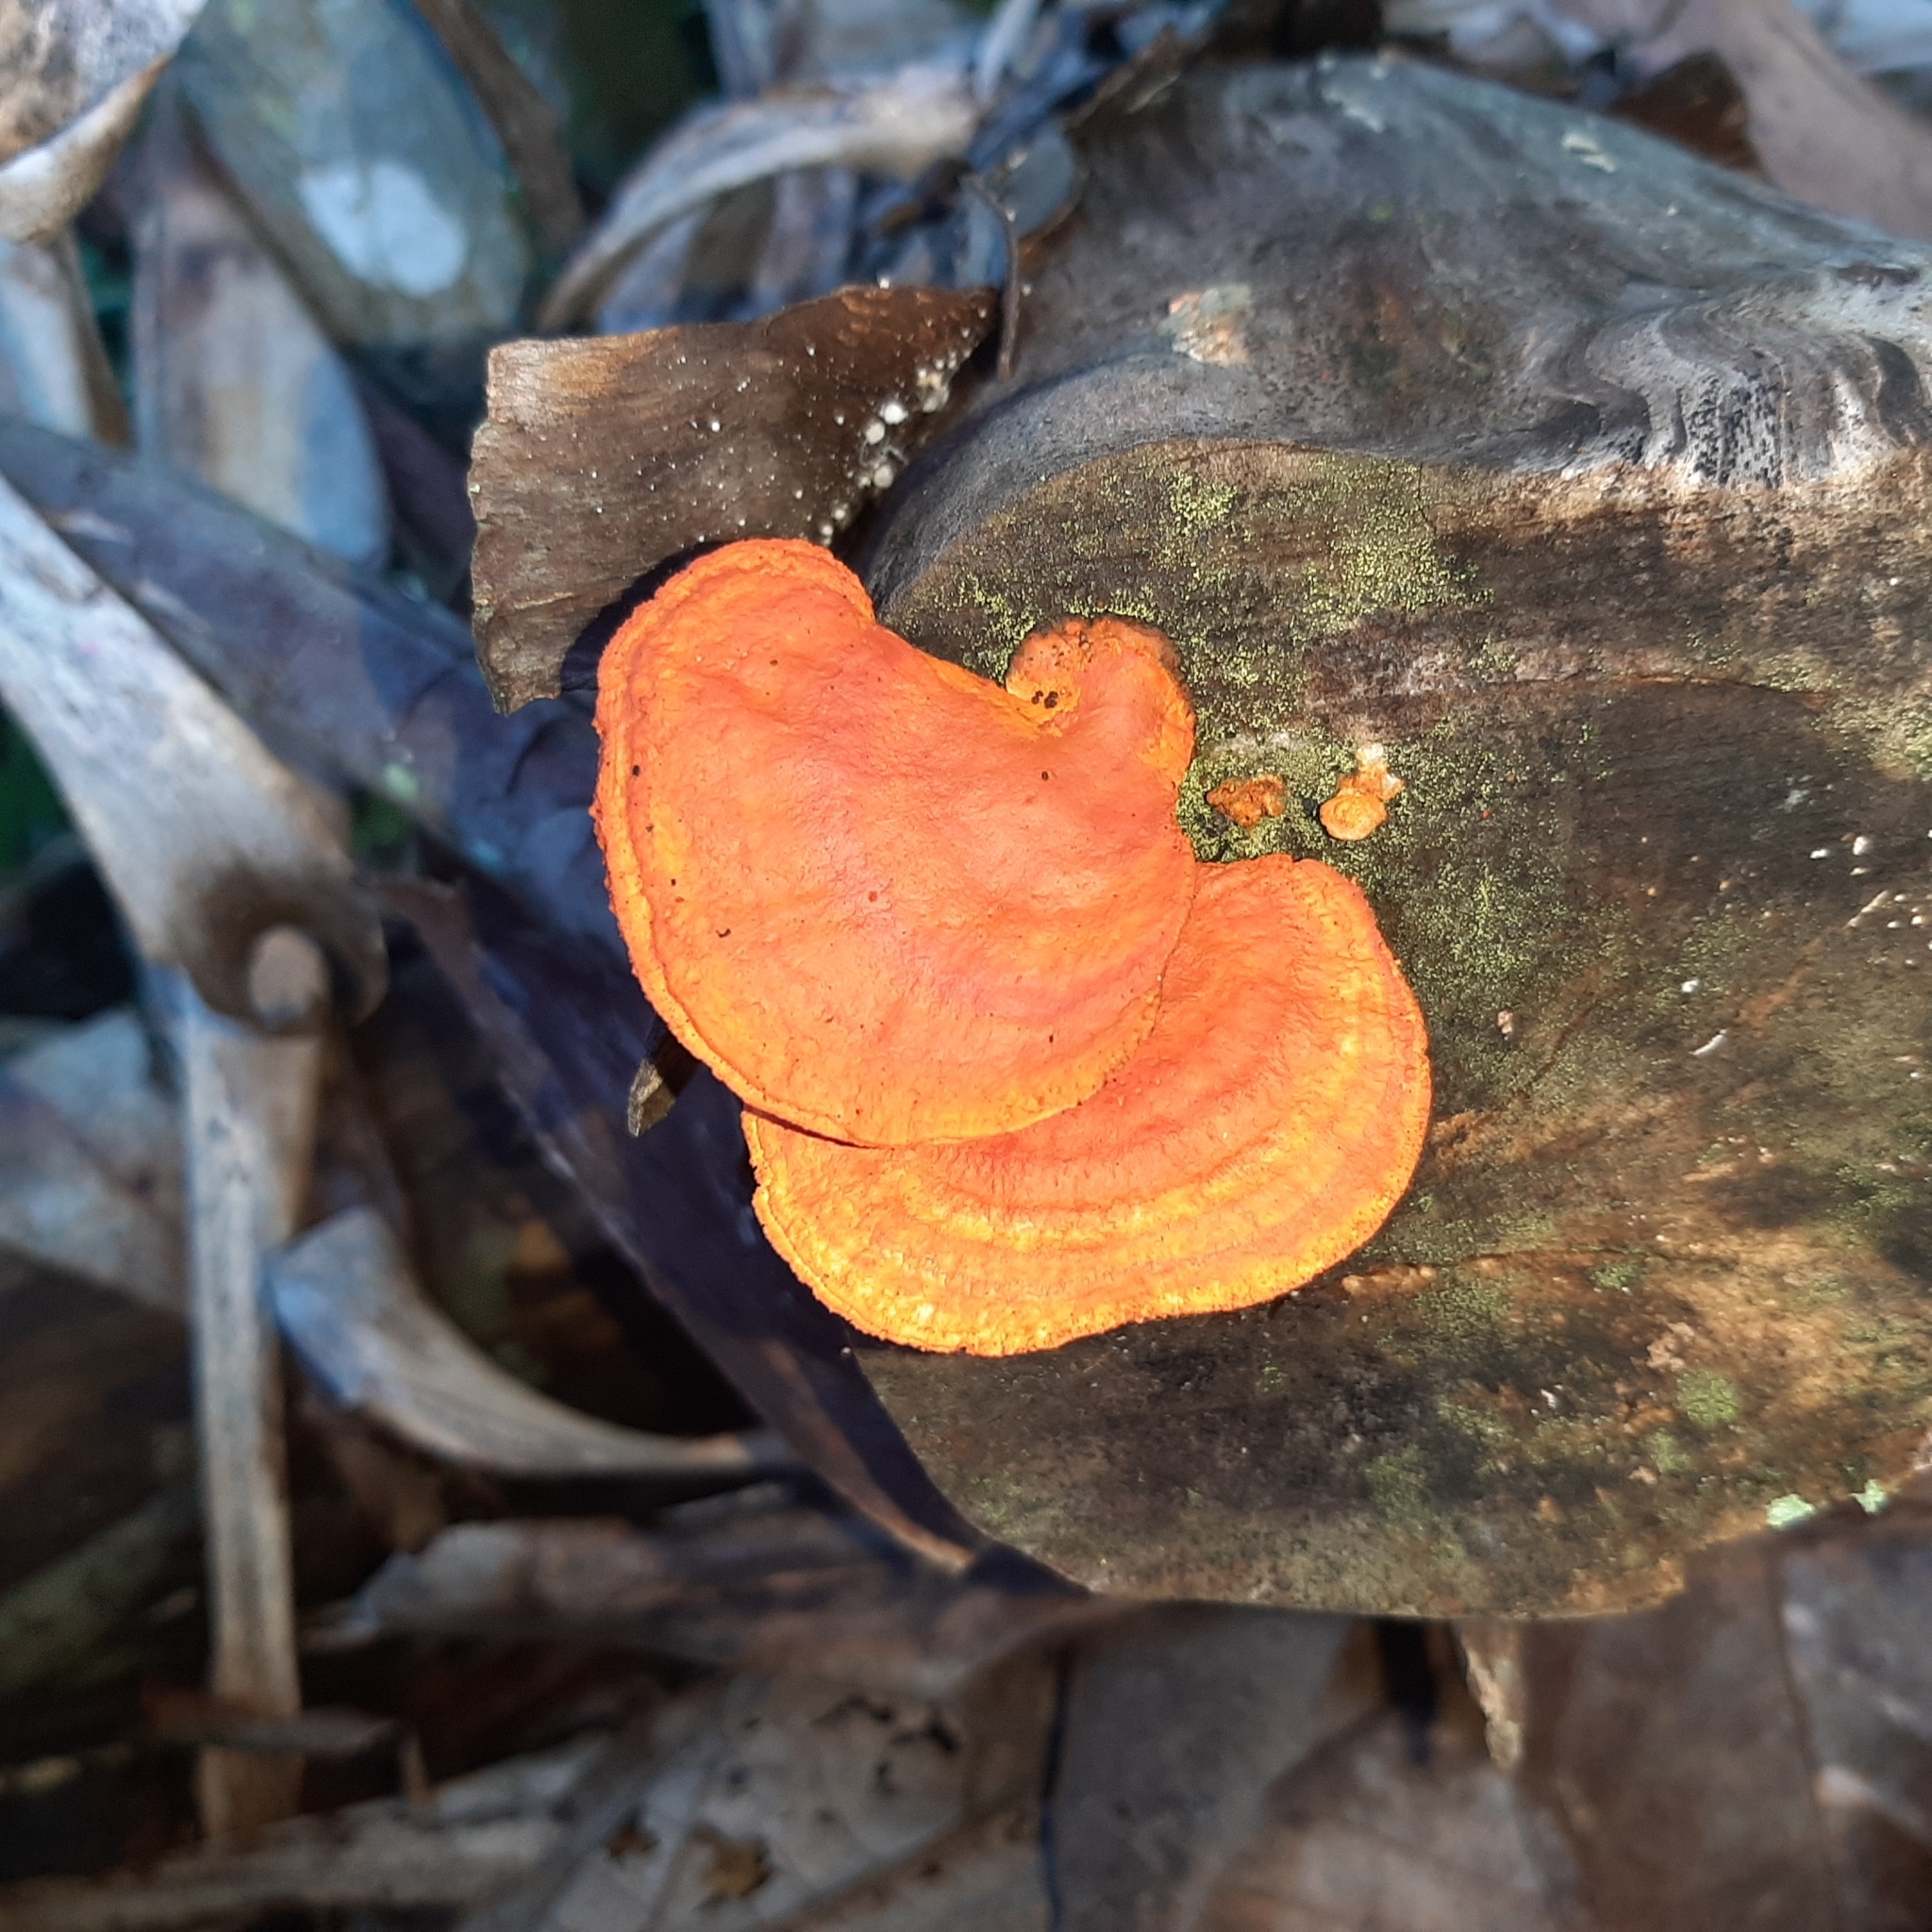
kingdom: Fungi
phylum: Basidiomycota
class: Agaricomycetes
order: Polyporales
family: Polyporaceae
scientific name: Polyporaceae
